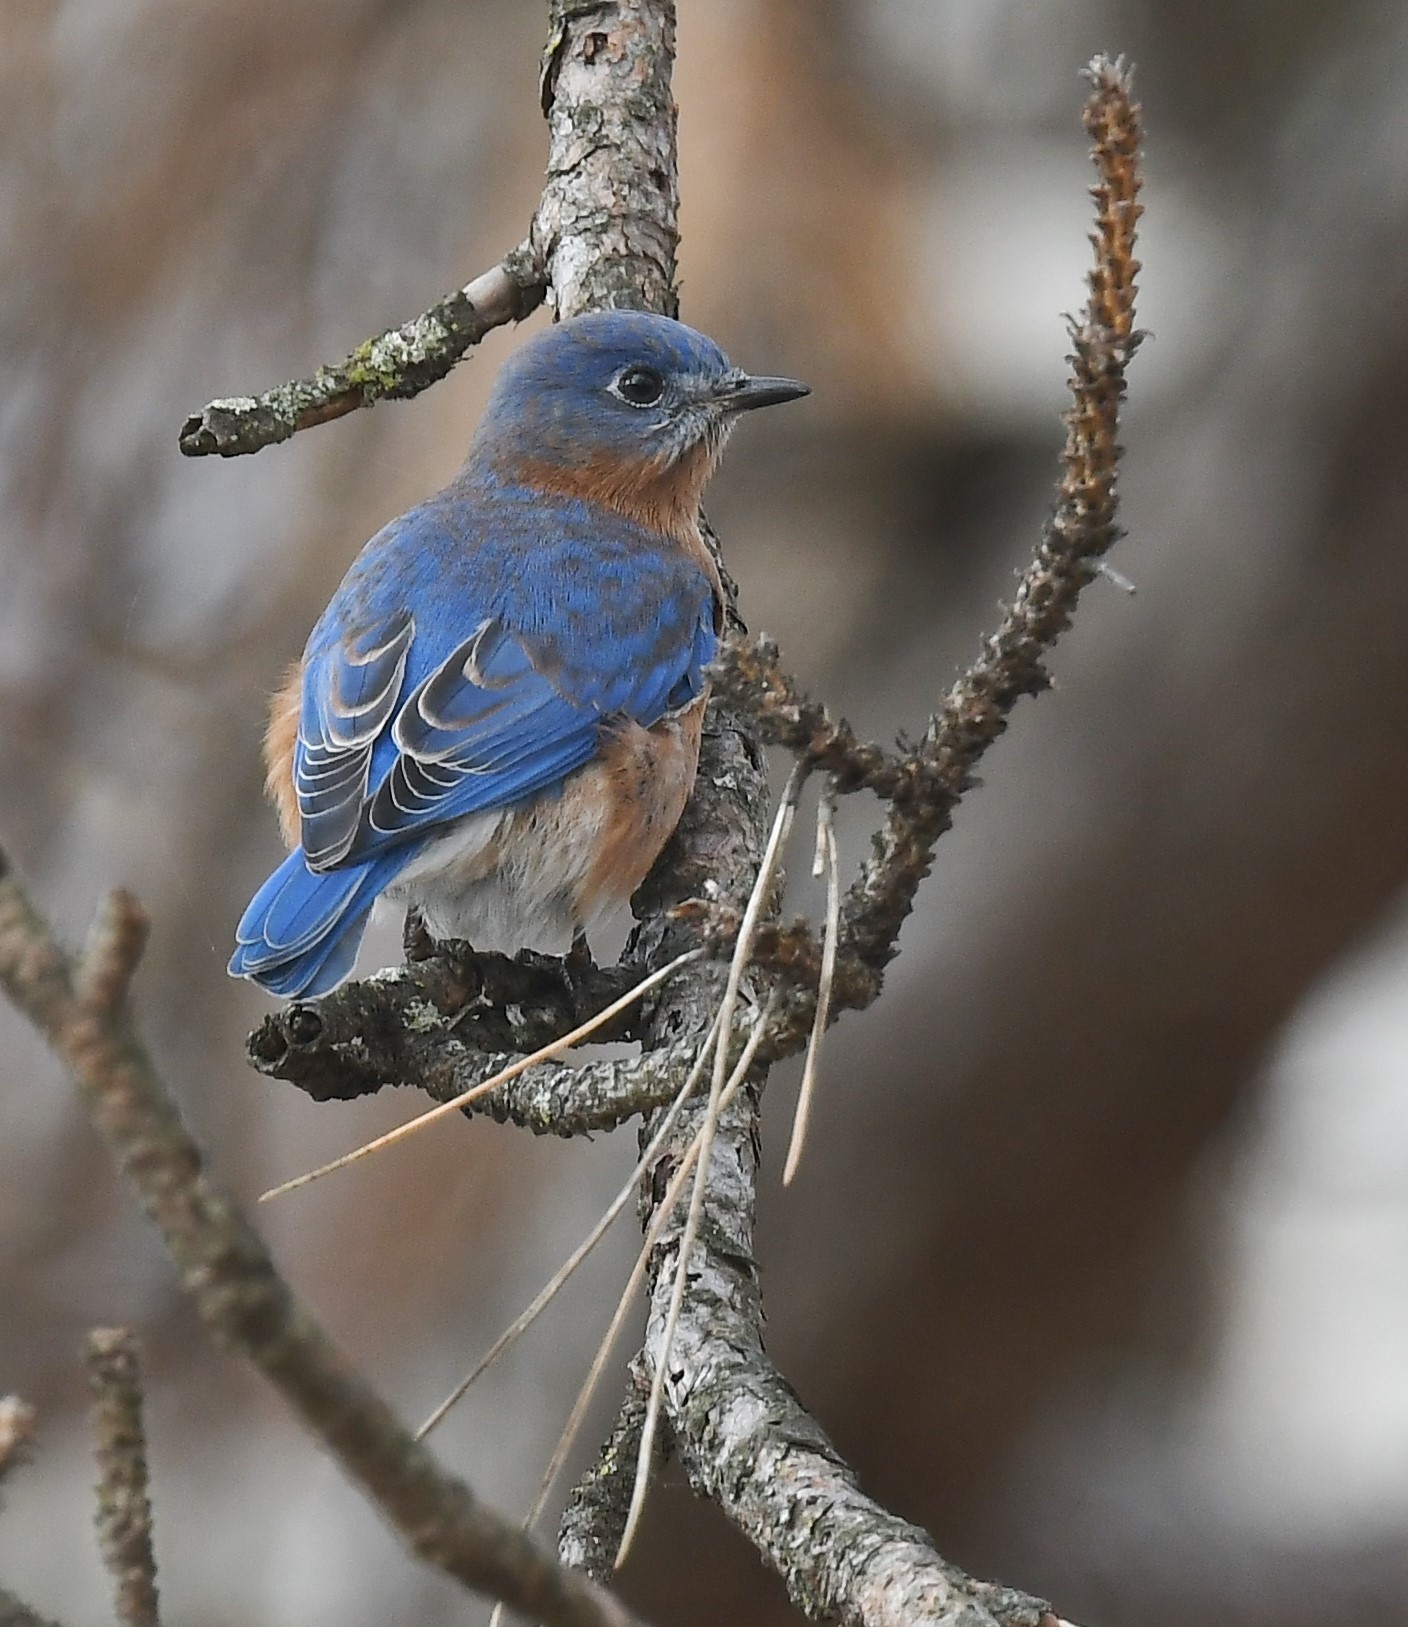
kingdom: Animalia
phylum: Chordata
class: Aves
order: Passeriformes
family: Turdidae
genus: Sialia
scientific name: Sialia sialis
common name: Eastern bluebird
